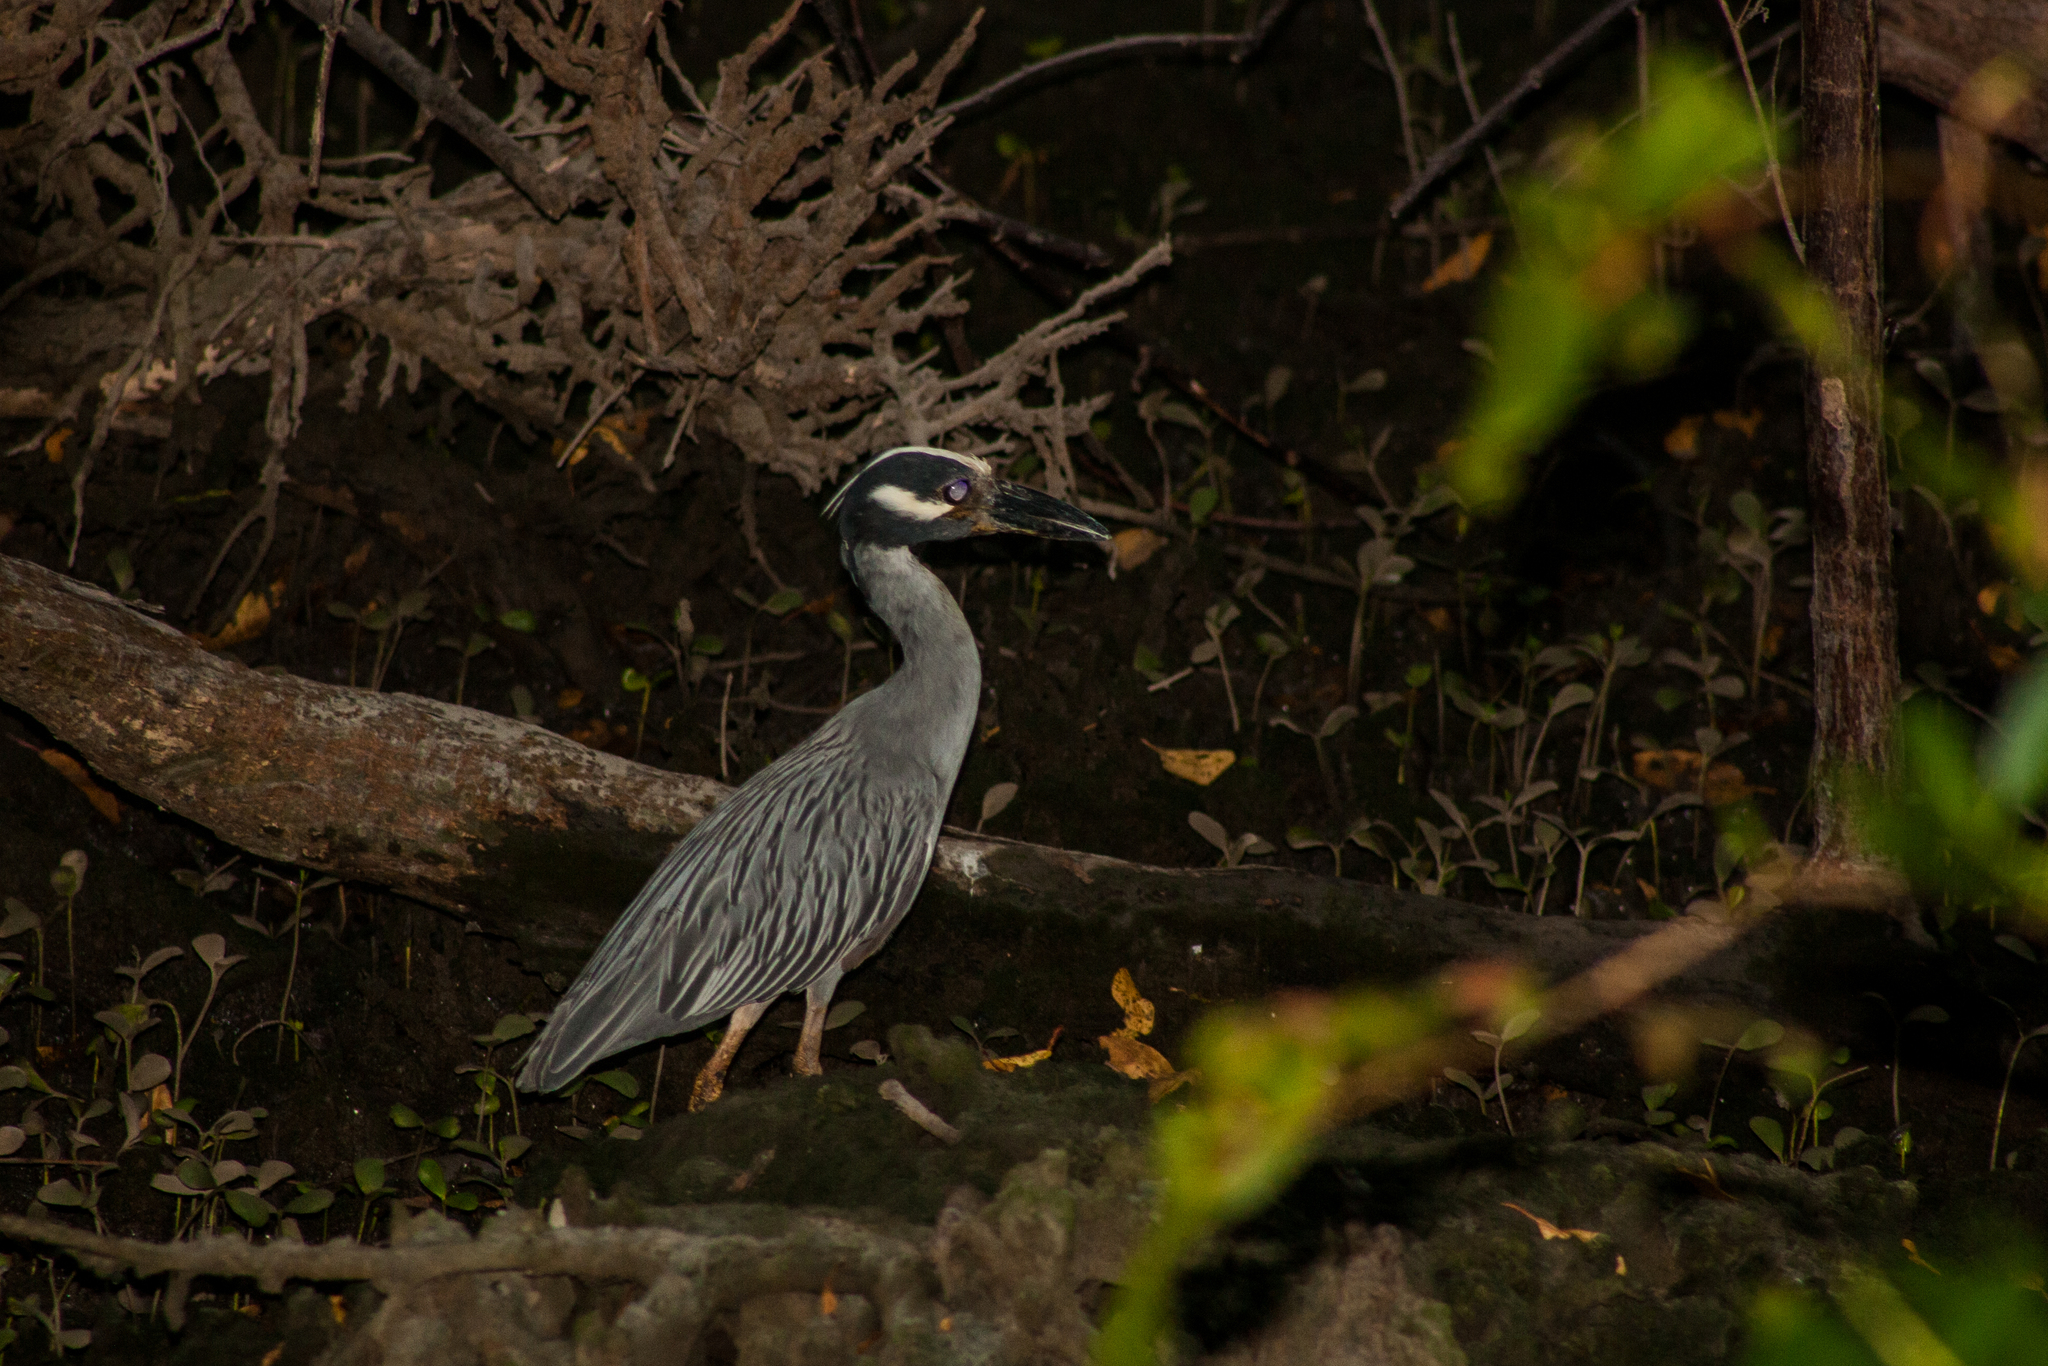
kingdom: Animalia
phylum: Chordata
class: Aves
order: Pelecaniformes
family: Ardeidae
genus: Nyctanassa
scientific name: Nyctanassa violacea
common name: Yellow-crowned night heron
